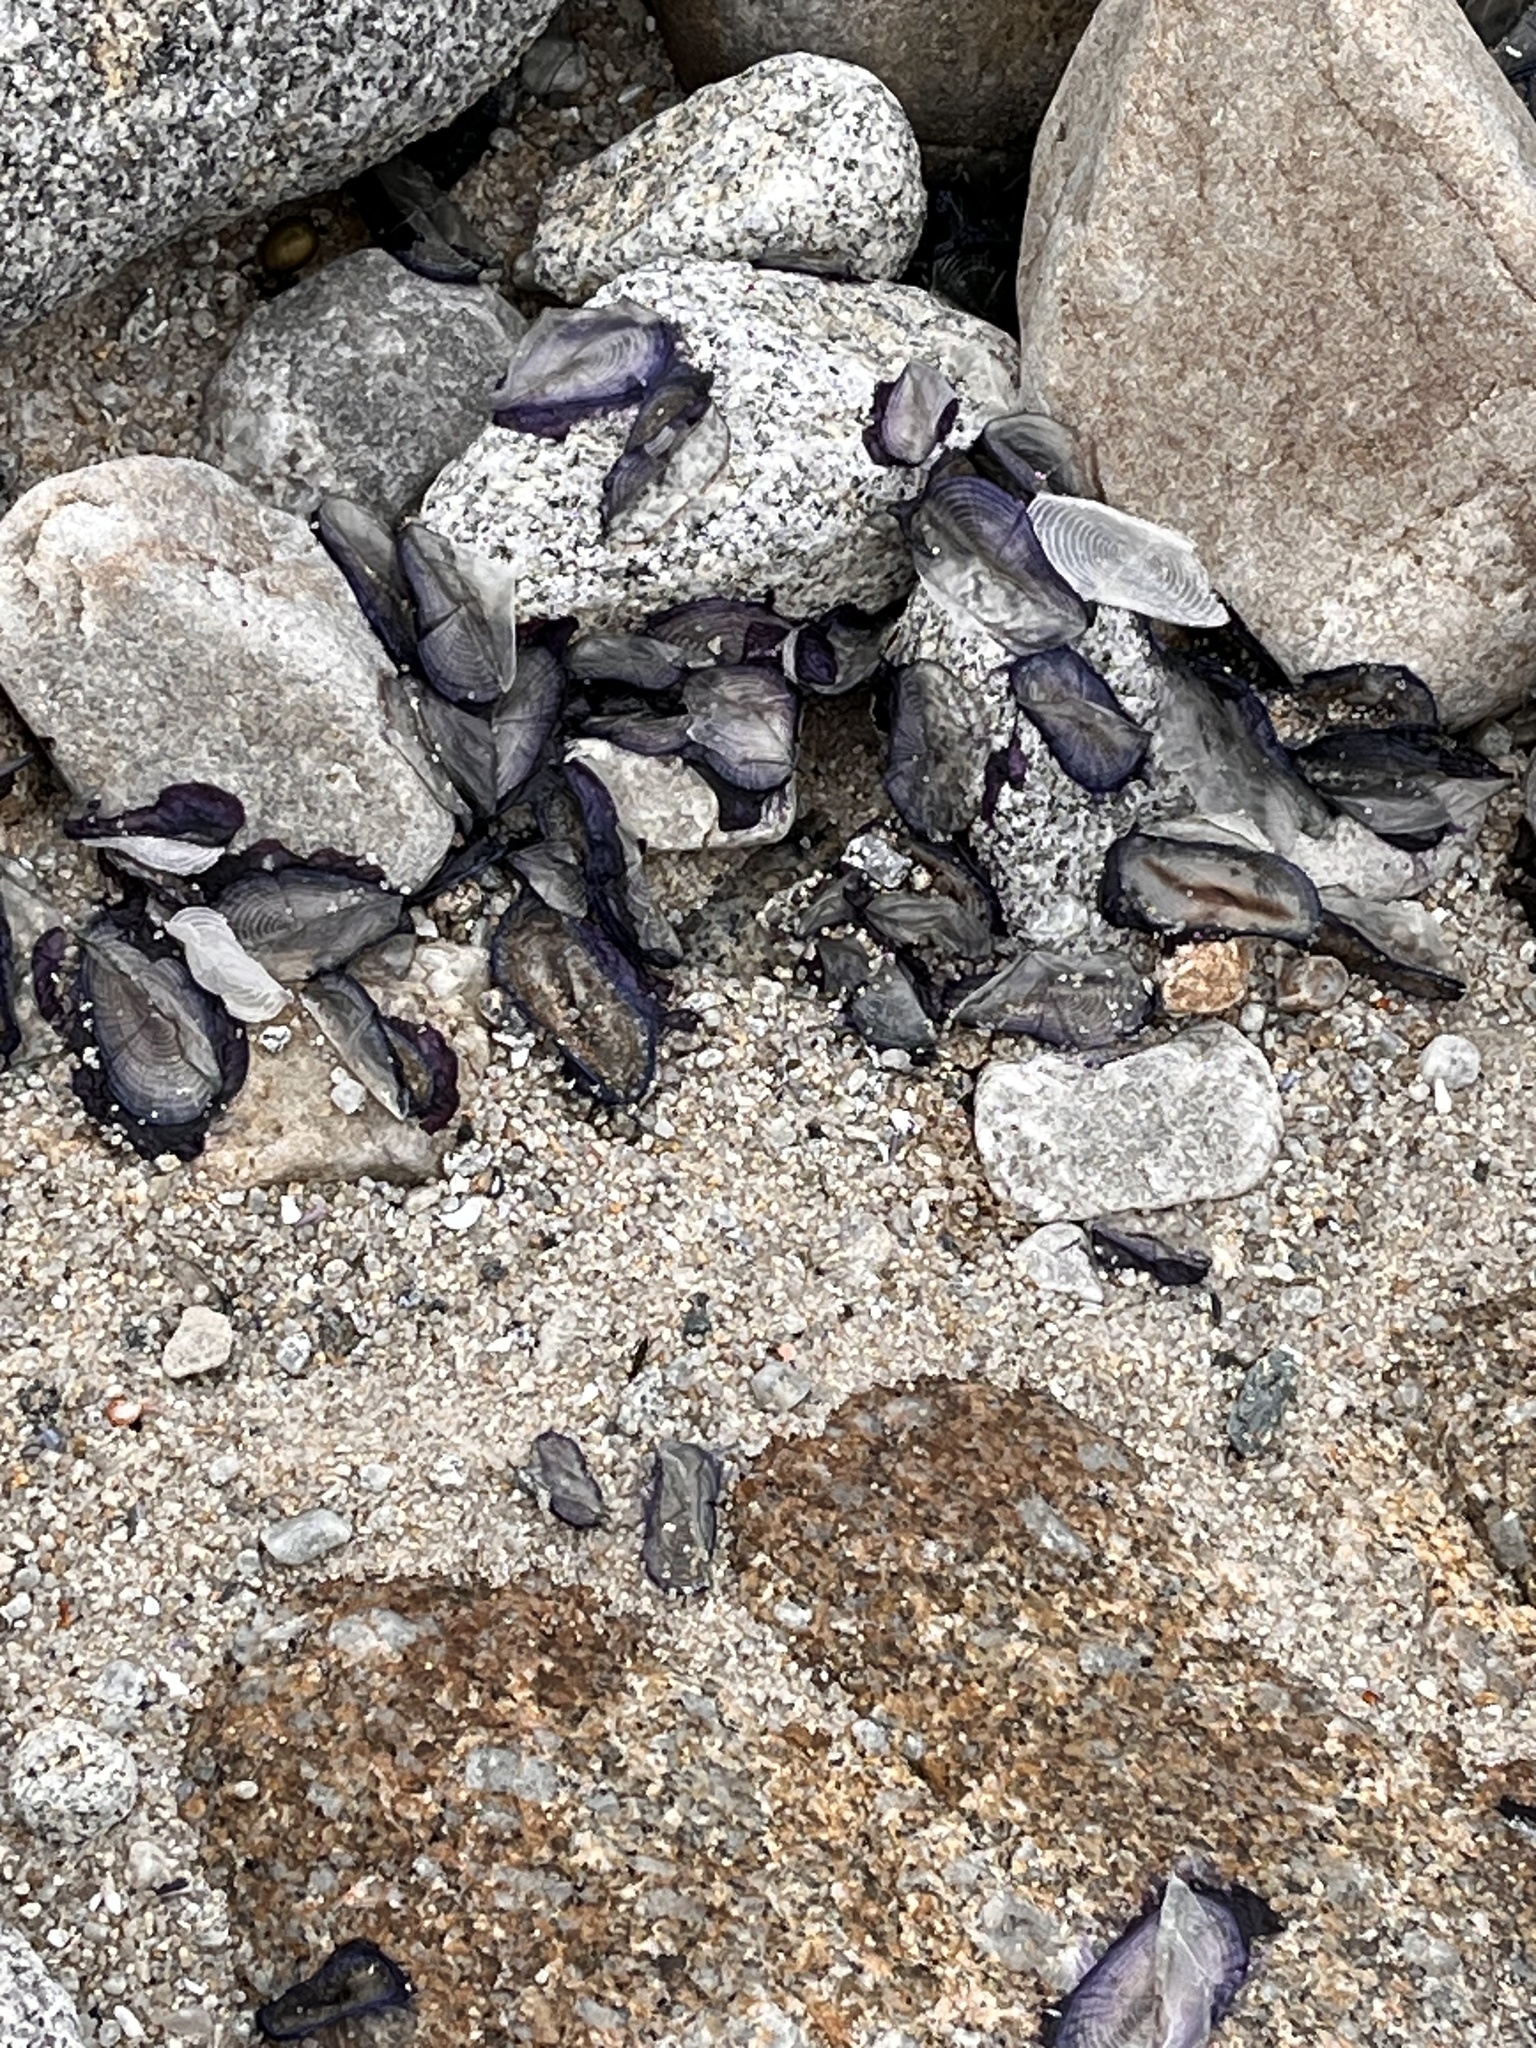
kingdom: Animalia
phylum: Cnidaria
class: Hydrozoa
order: Anthoathecata
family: Porpitidae
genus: Velella
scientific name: Velella velella
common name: By-the-wind-sailor
